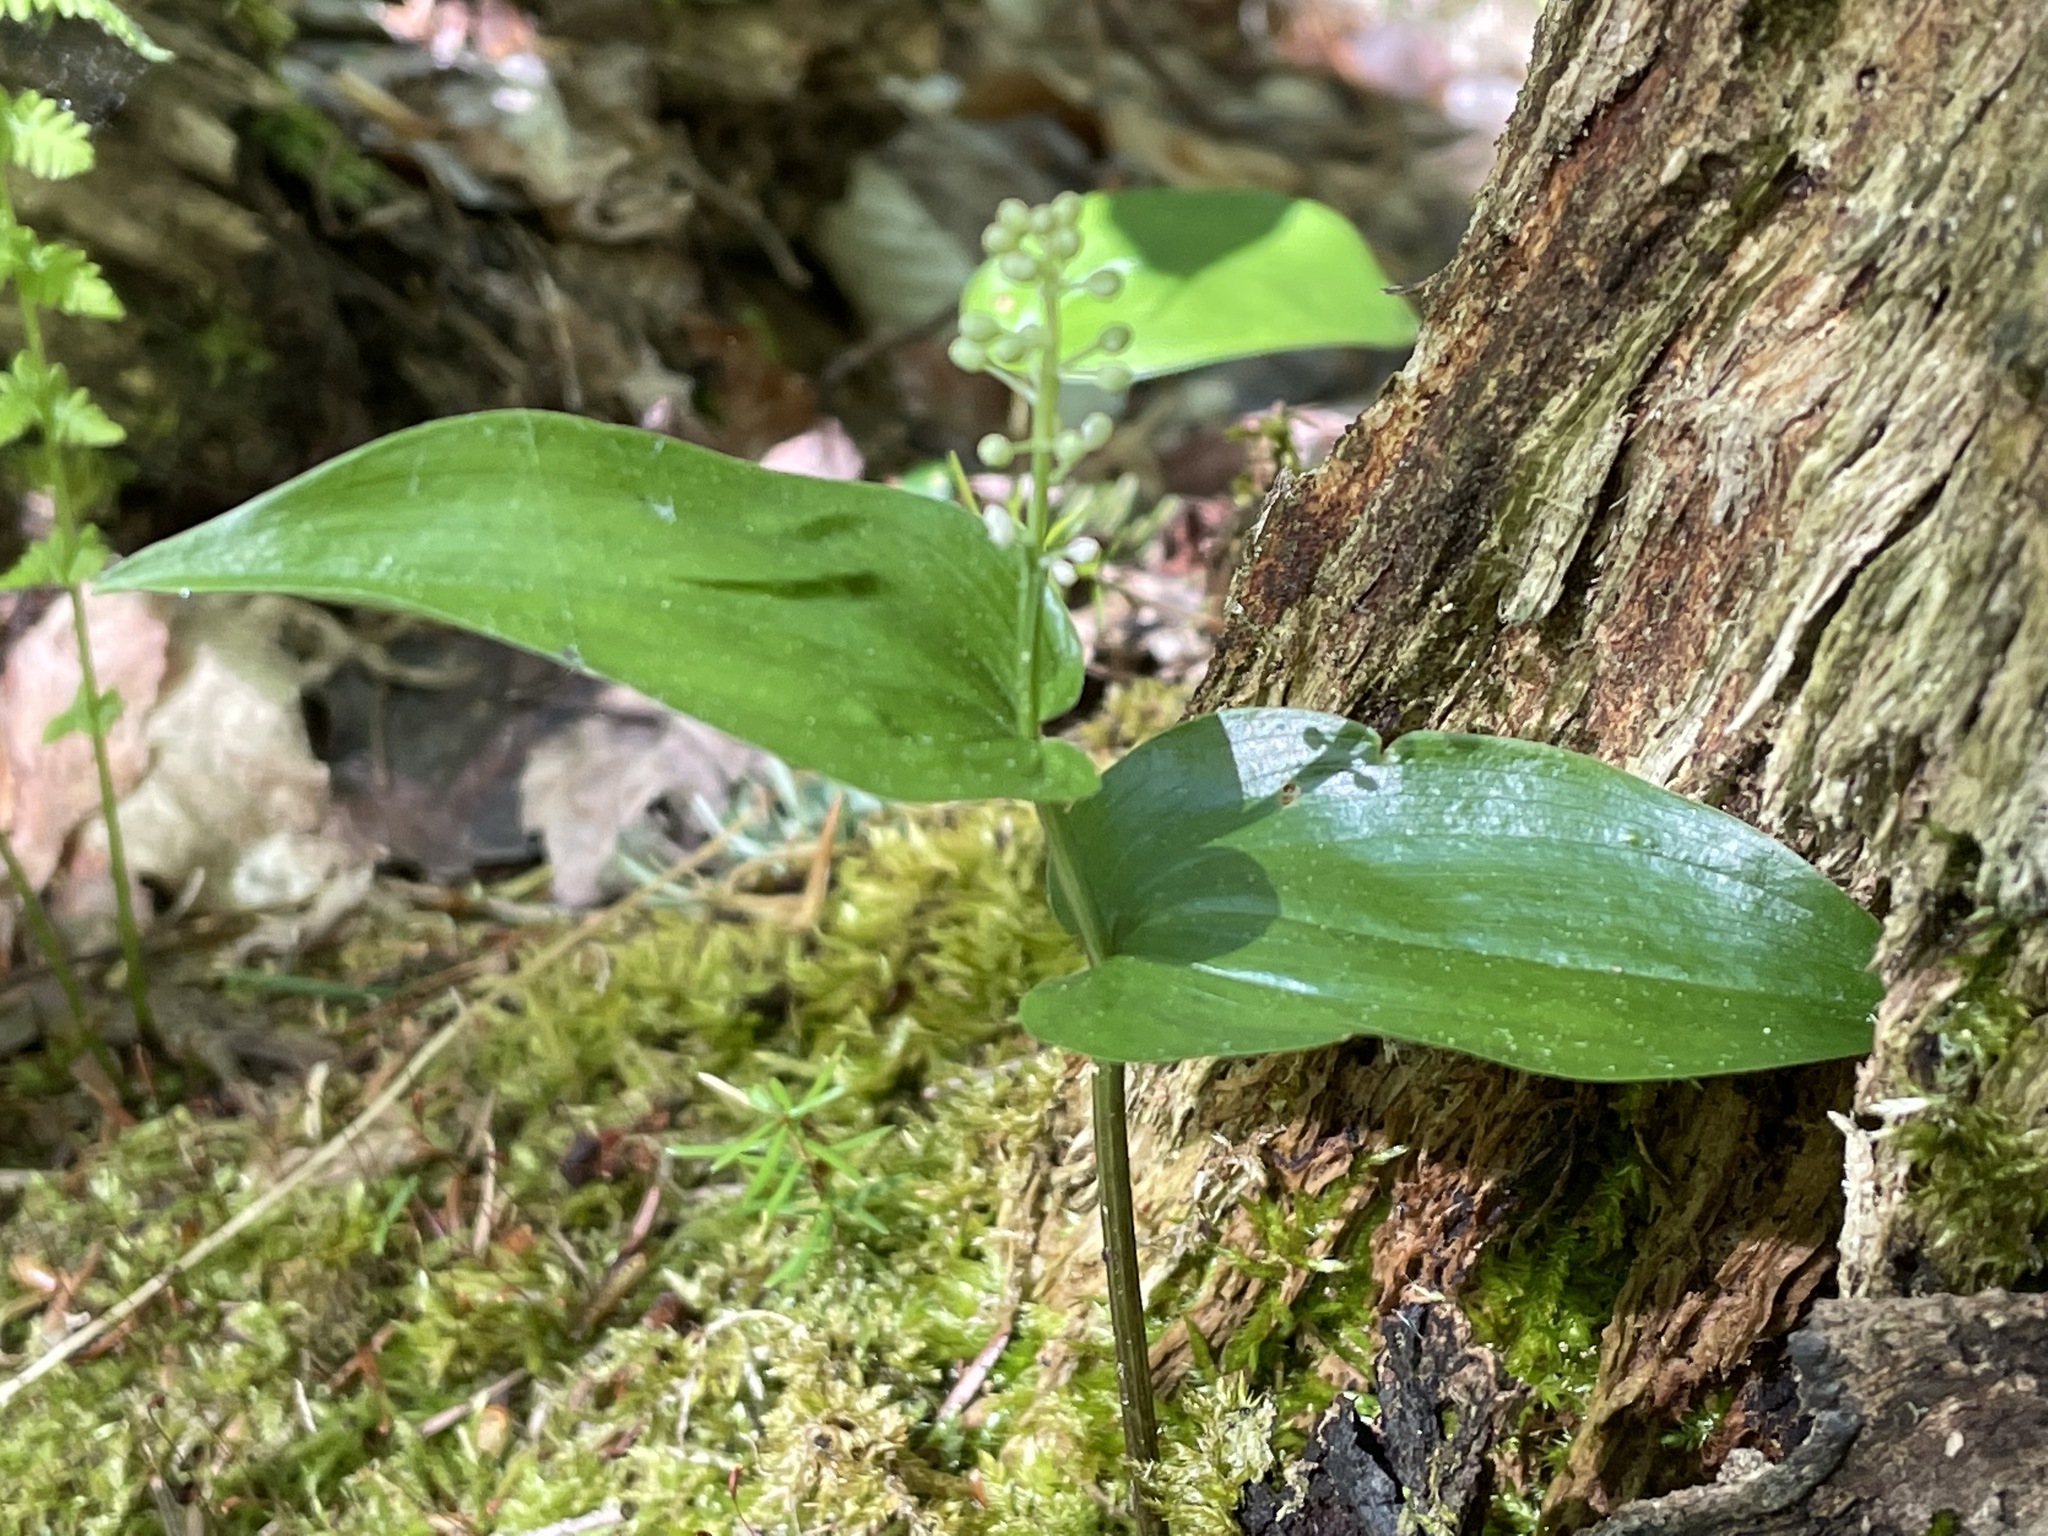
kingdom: Plantae
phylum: Tracheophyta
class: Liliopsida
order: Asparagales
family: Asparagaceae
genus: Maianthemum
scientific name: Maianthemum canadense
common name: False lily-of-the-valley
